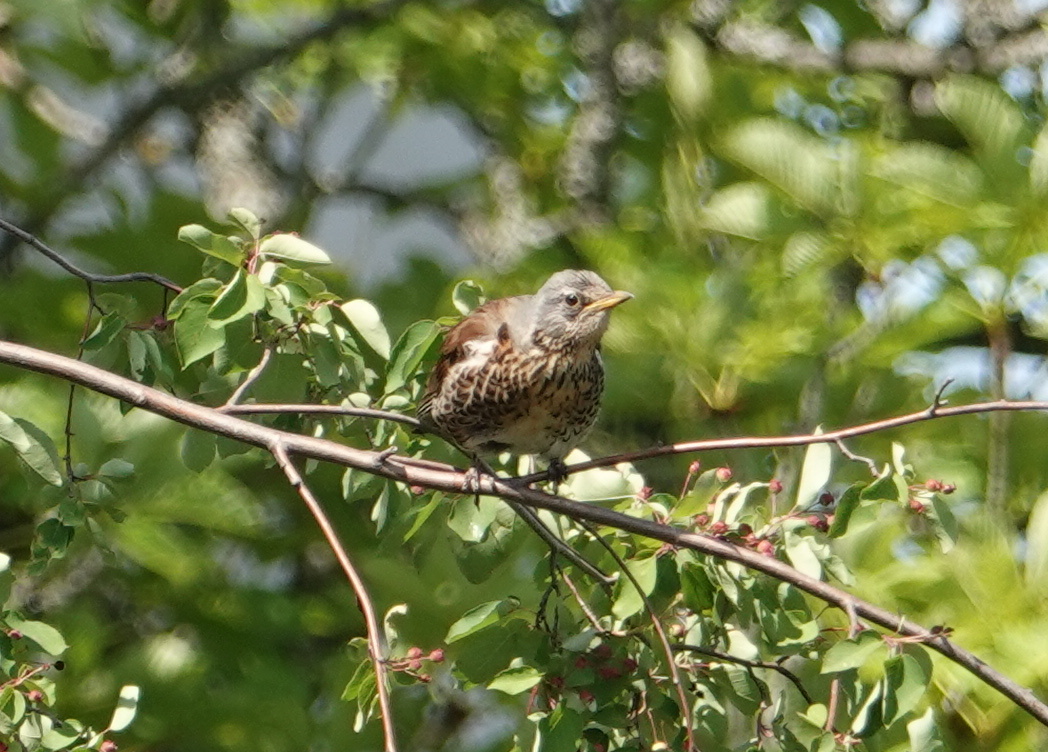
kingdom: Animalia
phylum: Chordata
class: Aves
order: Passeriformes
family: Turdidae
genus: Turdus
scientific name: Turdus pilaris
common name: Fieldfare
